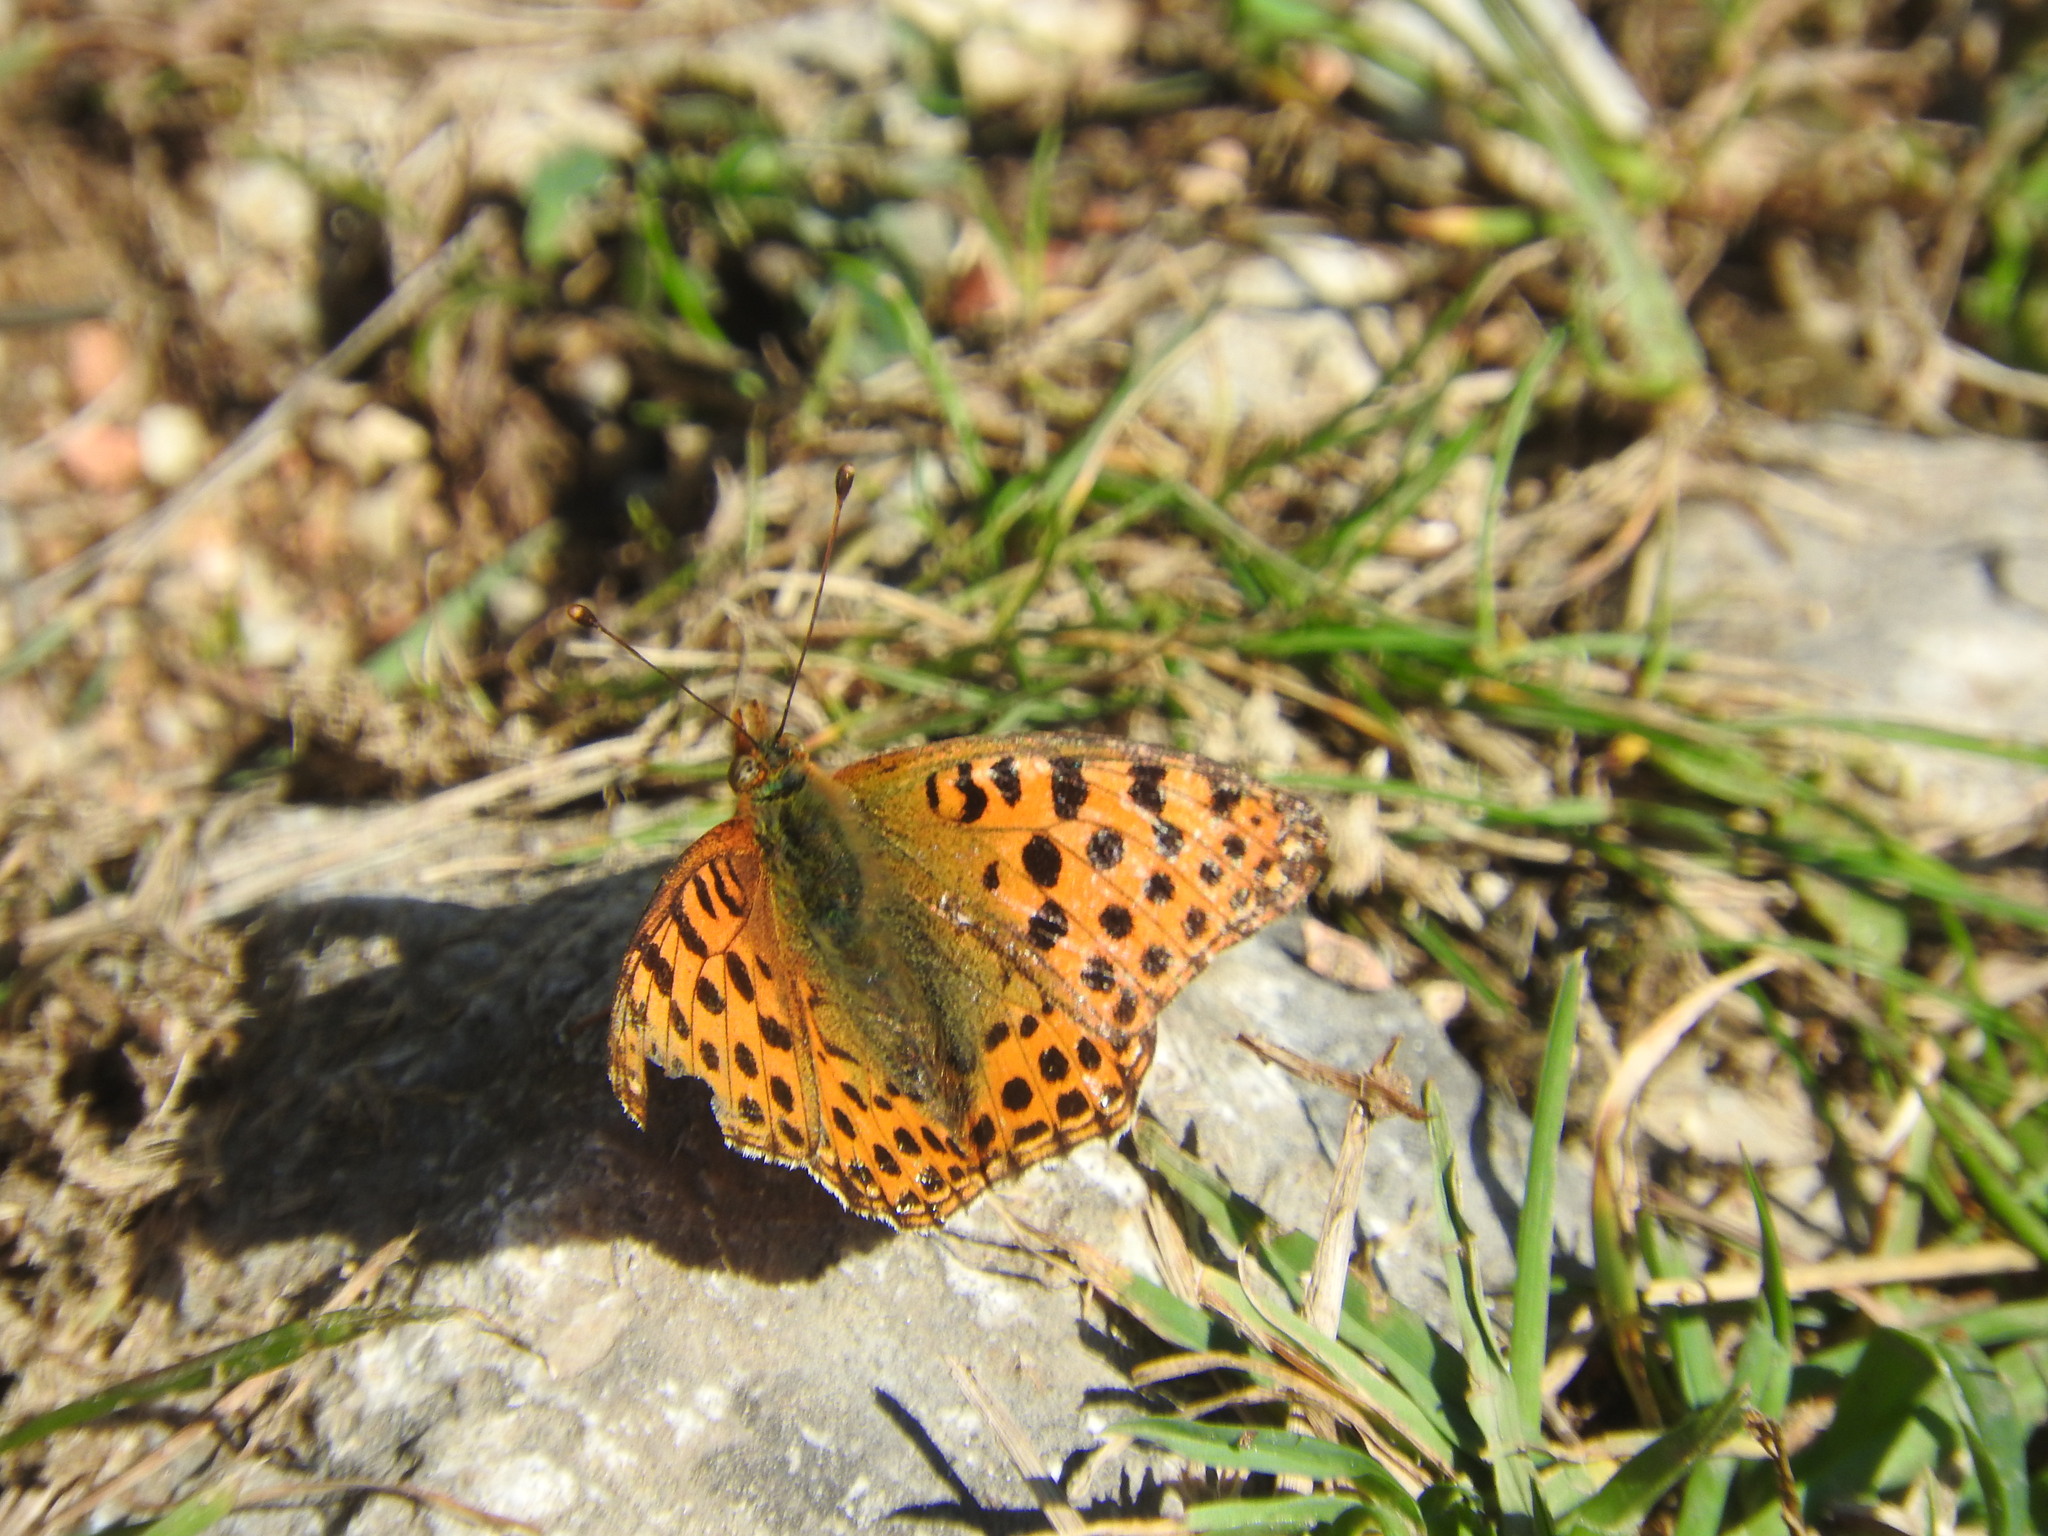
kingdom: Animalia
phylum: Arthropoda
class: Insecta
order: Lepidoptera
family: Nymphalidae
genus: Issoria
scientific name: Issoria lathonia
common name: Queen of spain fritillary
